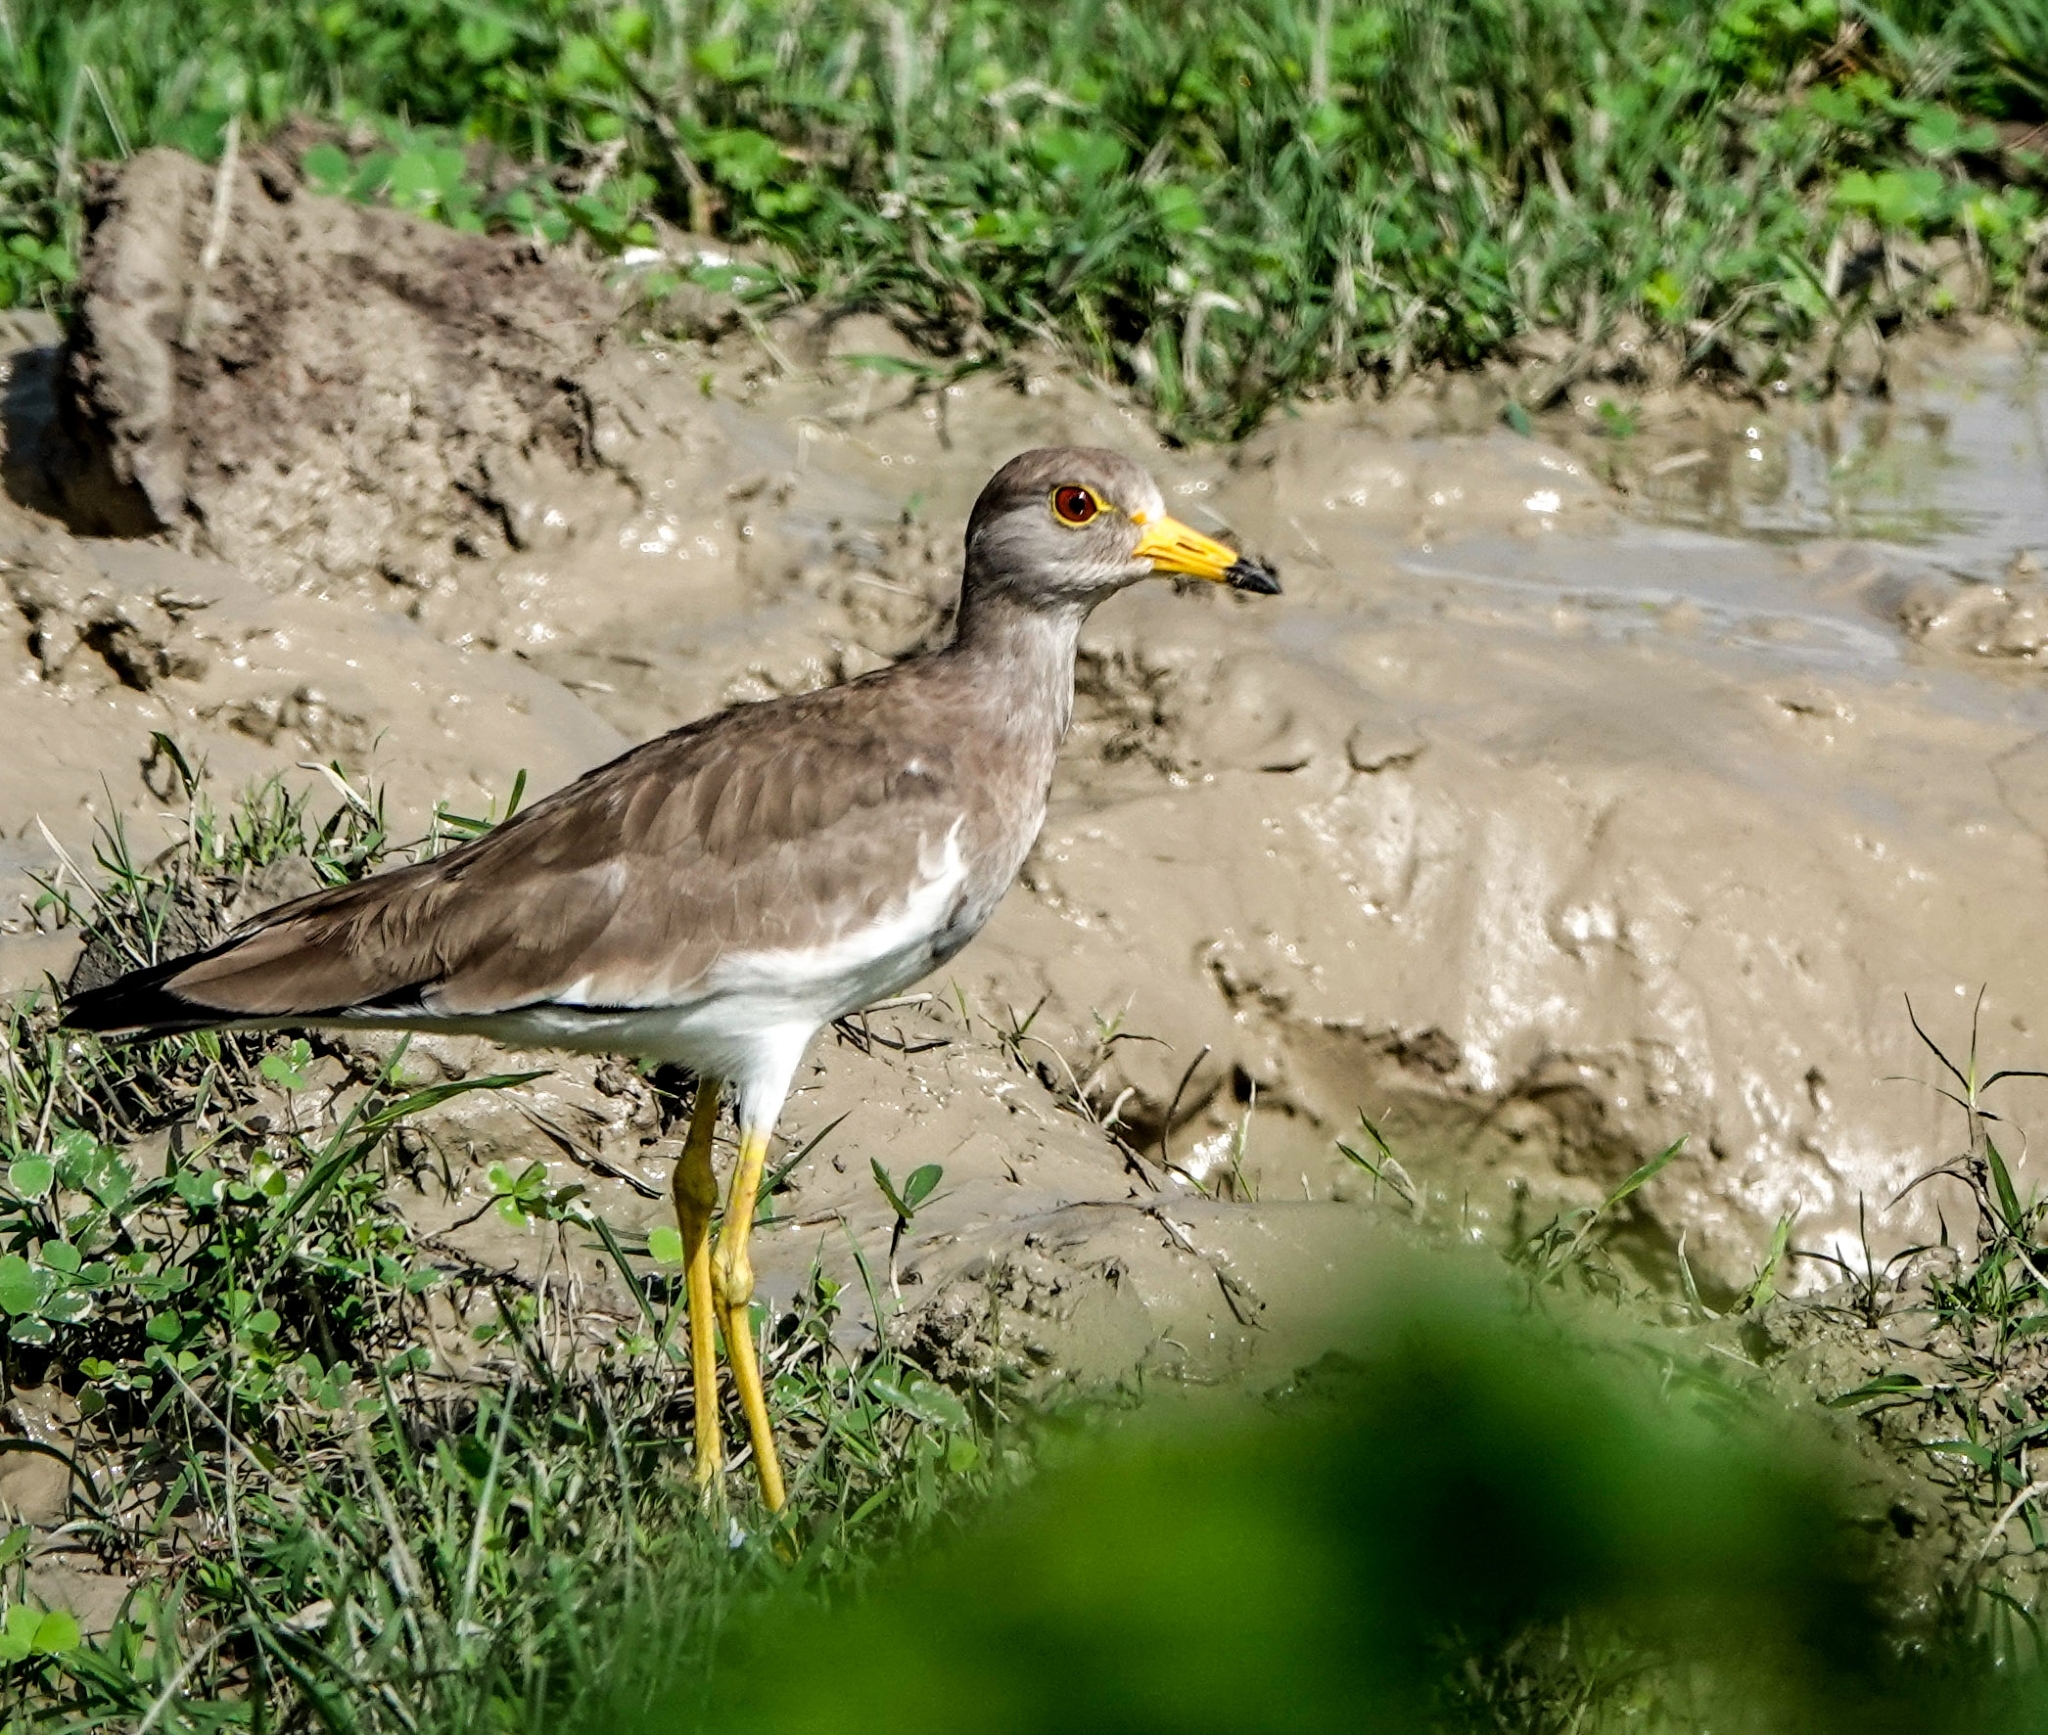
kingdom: Animalia
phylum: Chordata
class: Aves
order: Charadriiformes
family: Charadriidae
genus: Vanellus
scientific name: Vanellus cinereus
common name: Grey-headed lapwing
